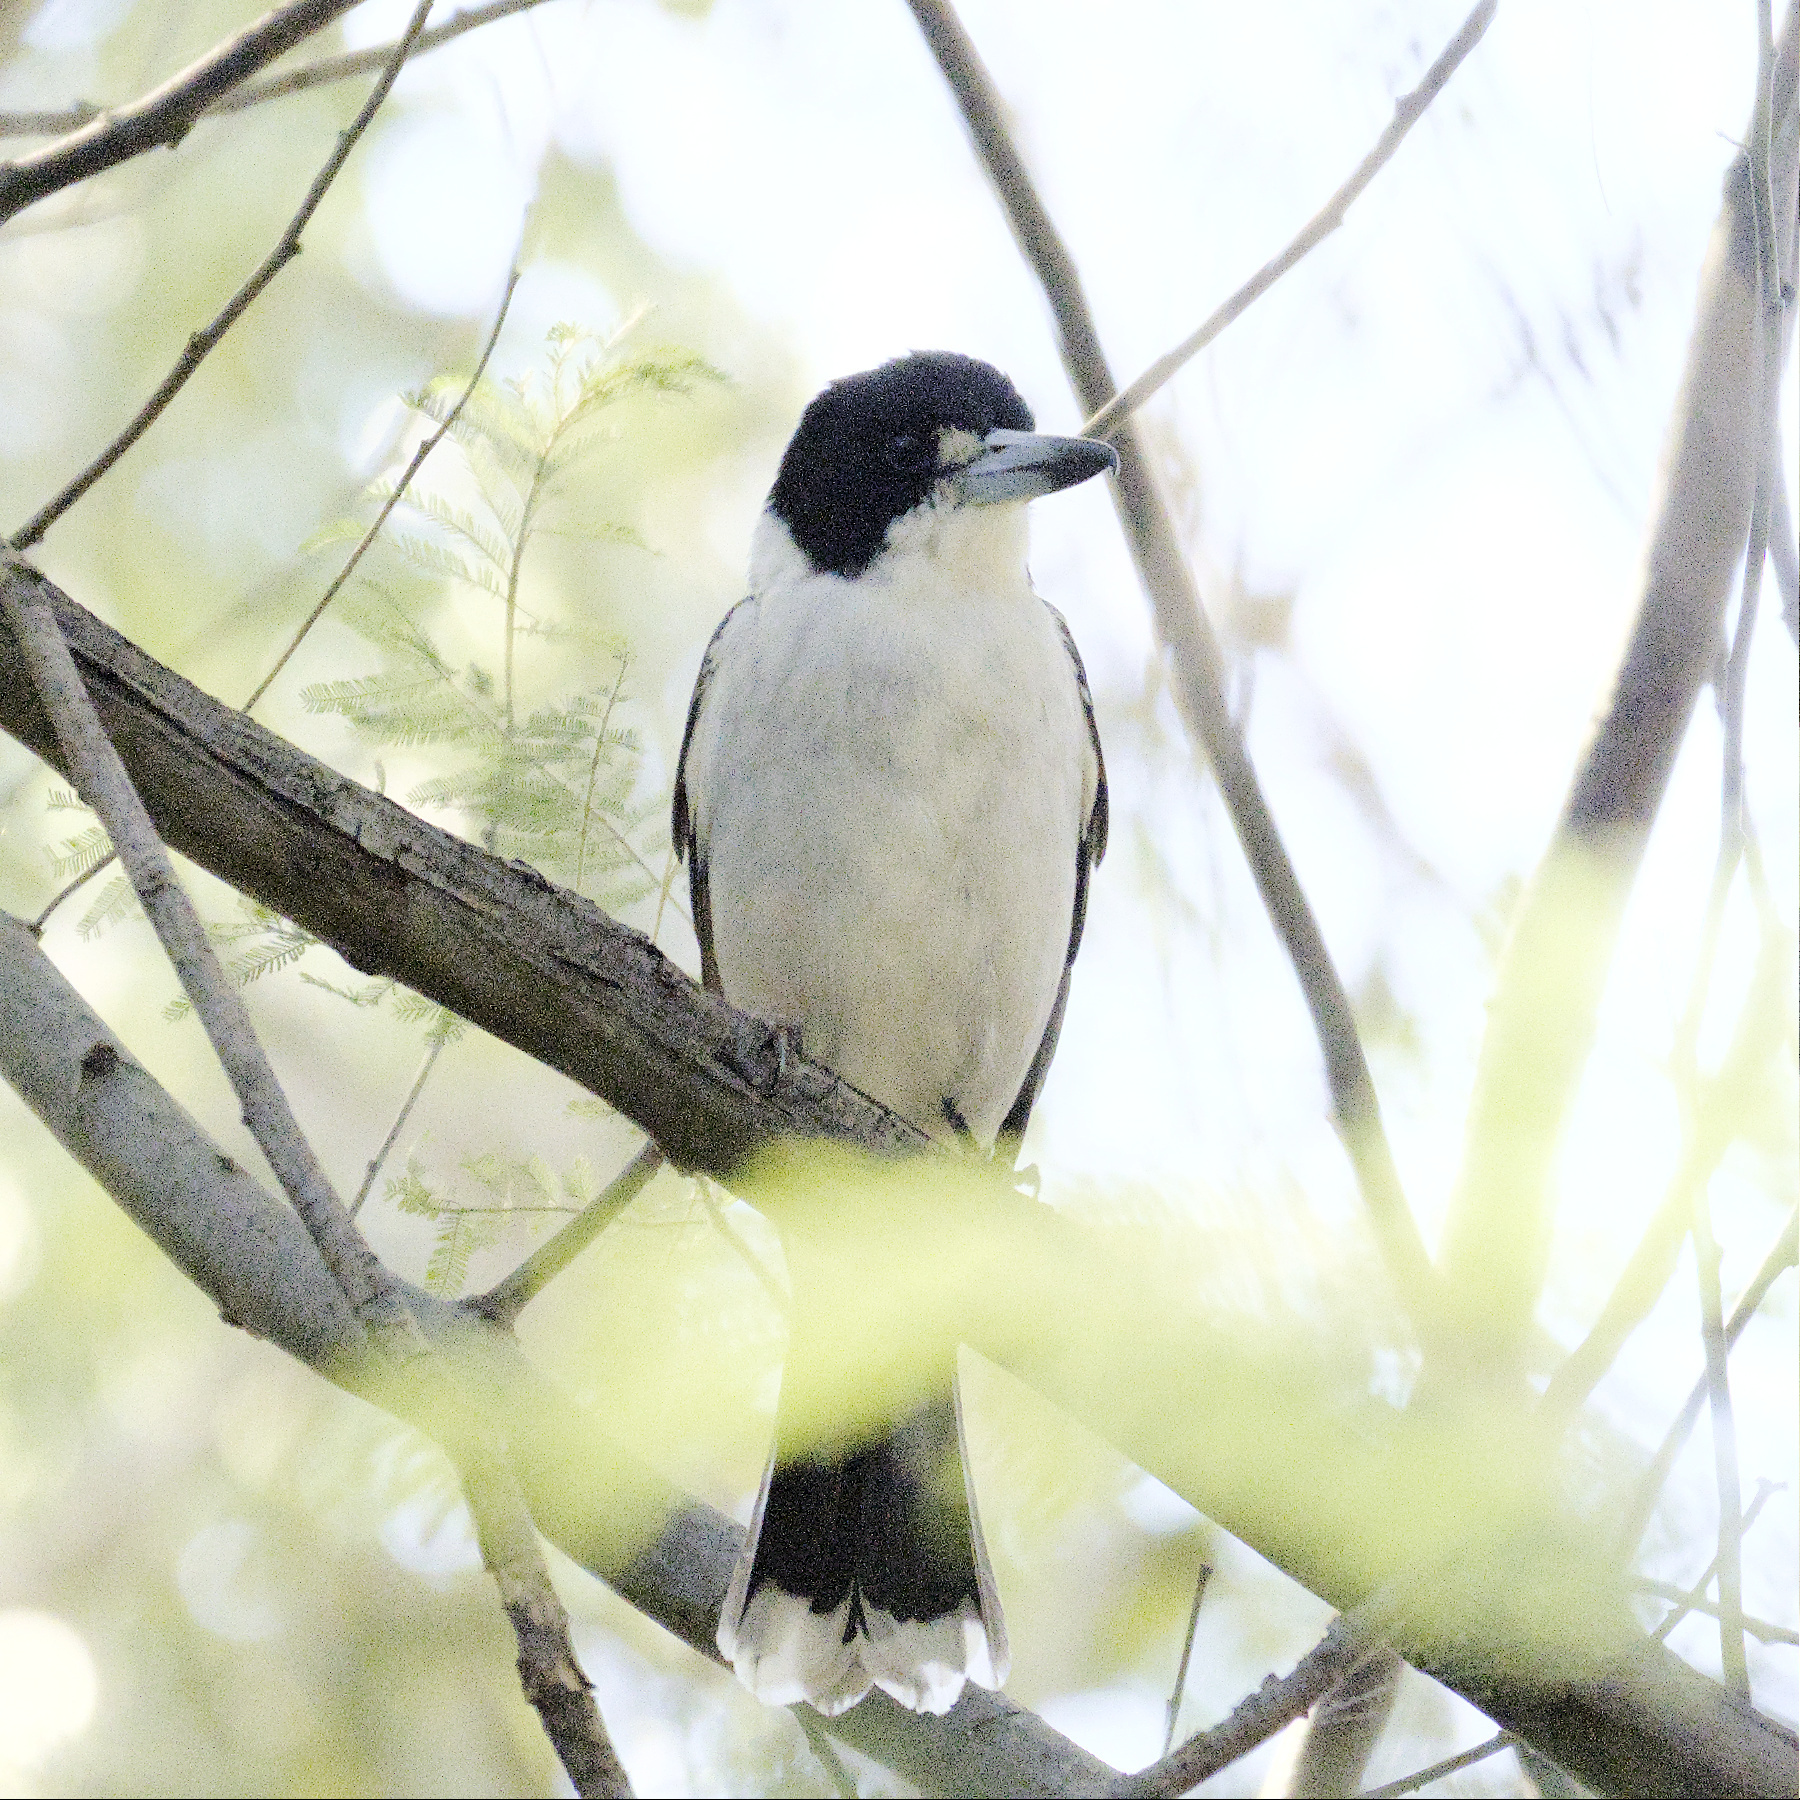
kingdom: Animalia
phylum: Chordata
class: Aves
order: Passeriformes
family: Cracticidae
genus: Cracticus
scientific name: Cracticus torquatus
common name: Grey butcherbird
